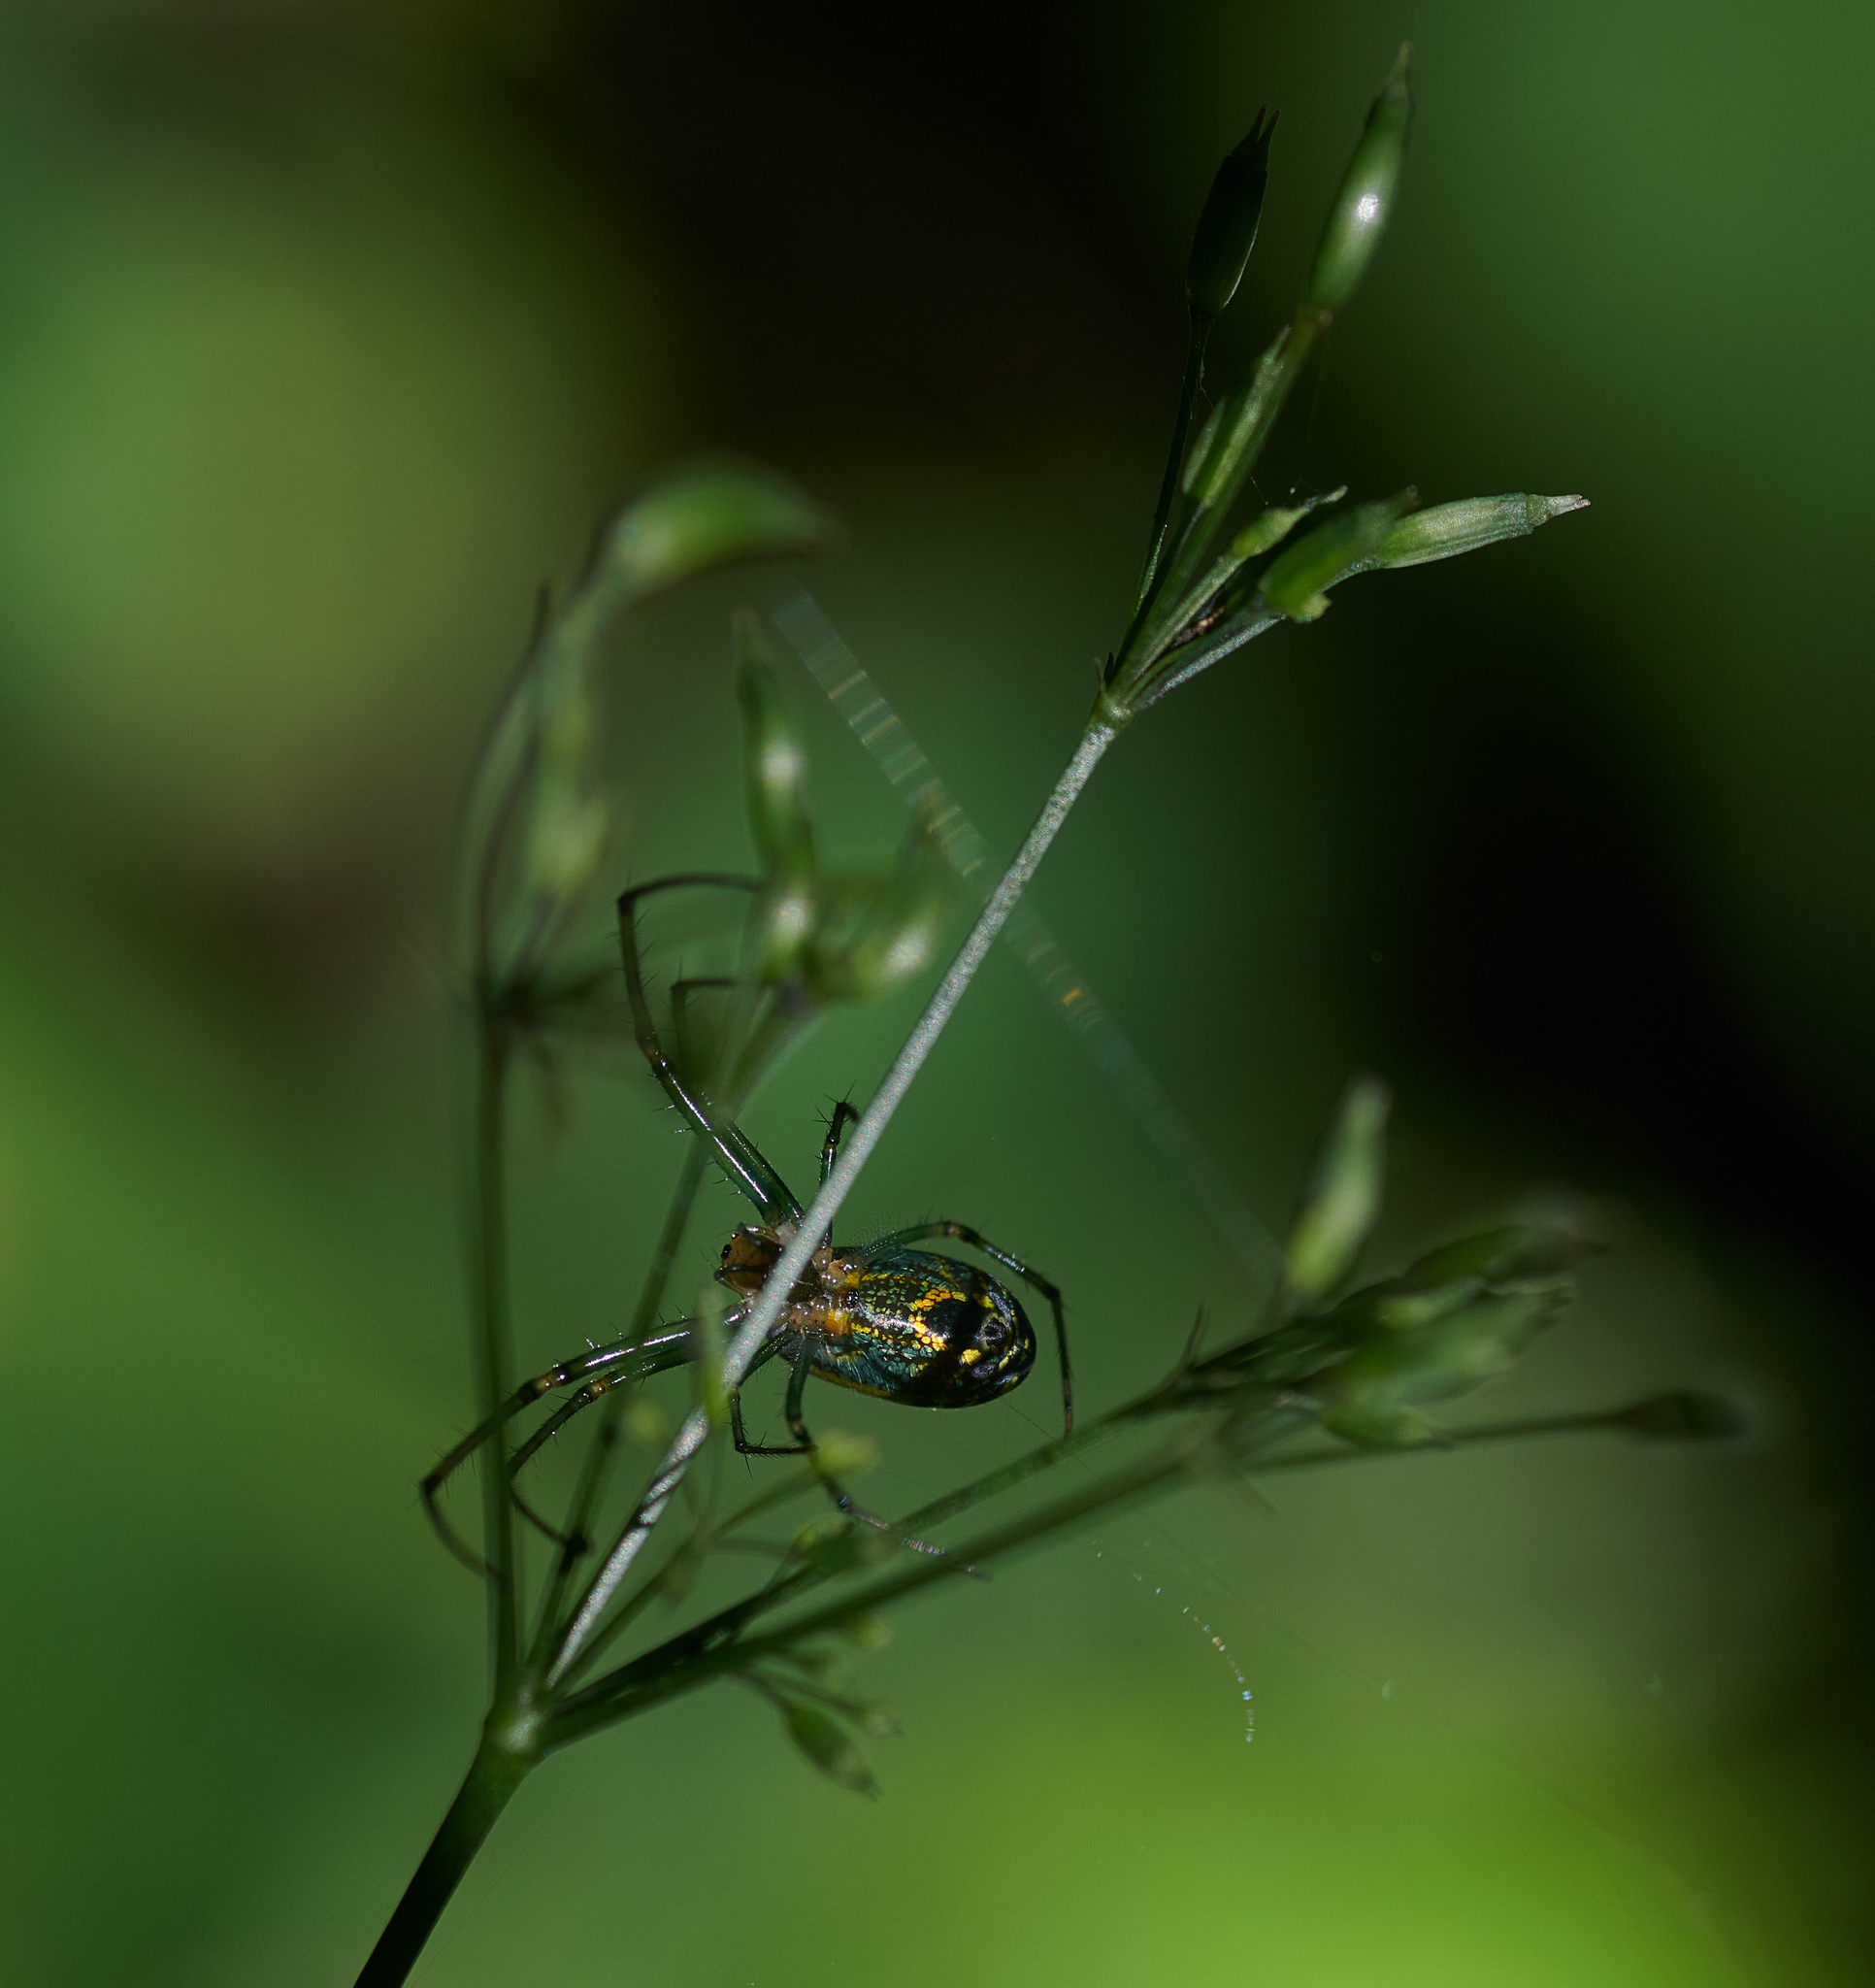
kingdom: Animalia
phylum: Arthropoda
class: Arachnida
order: Araneae
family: Tetragnathidae
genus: Leucauge
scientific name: Leucauge venusta
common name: Longjawed orb weavers
